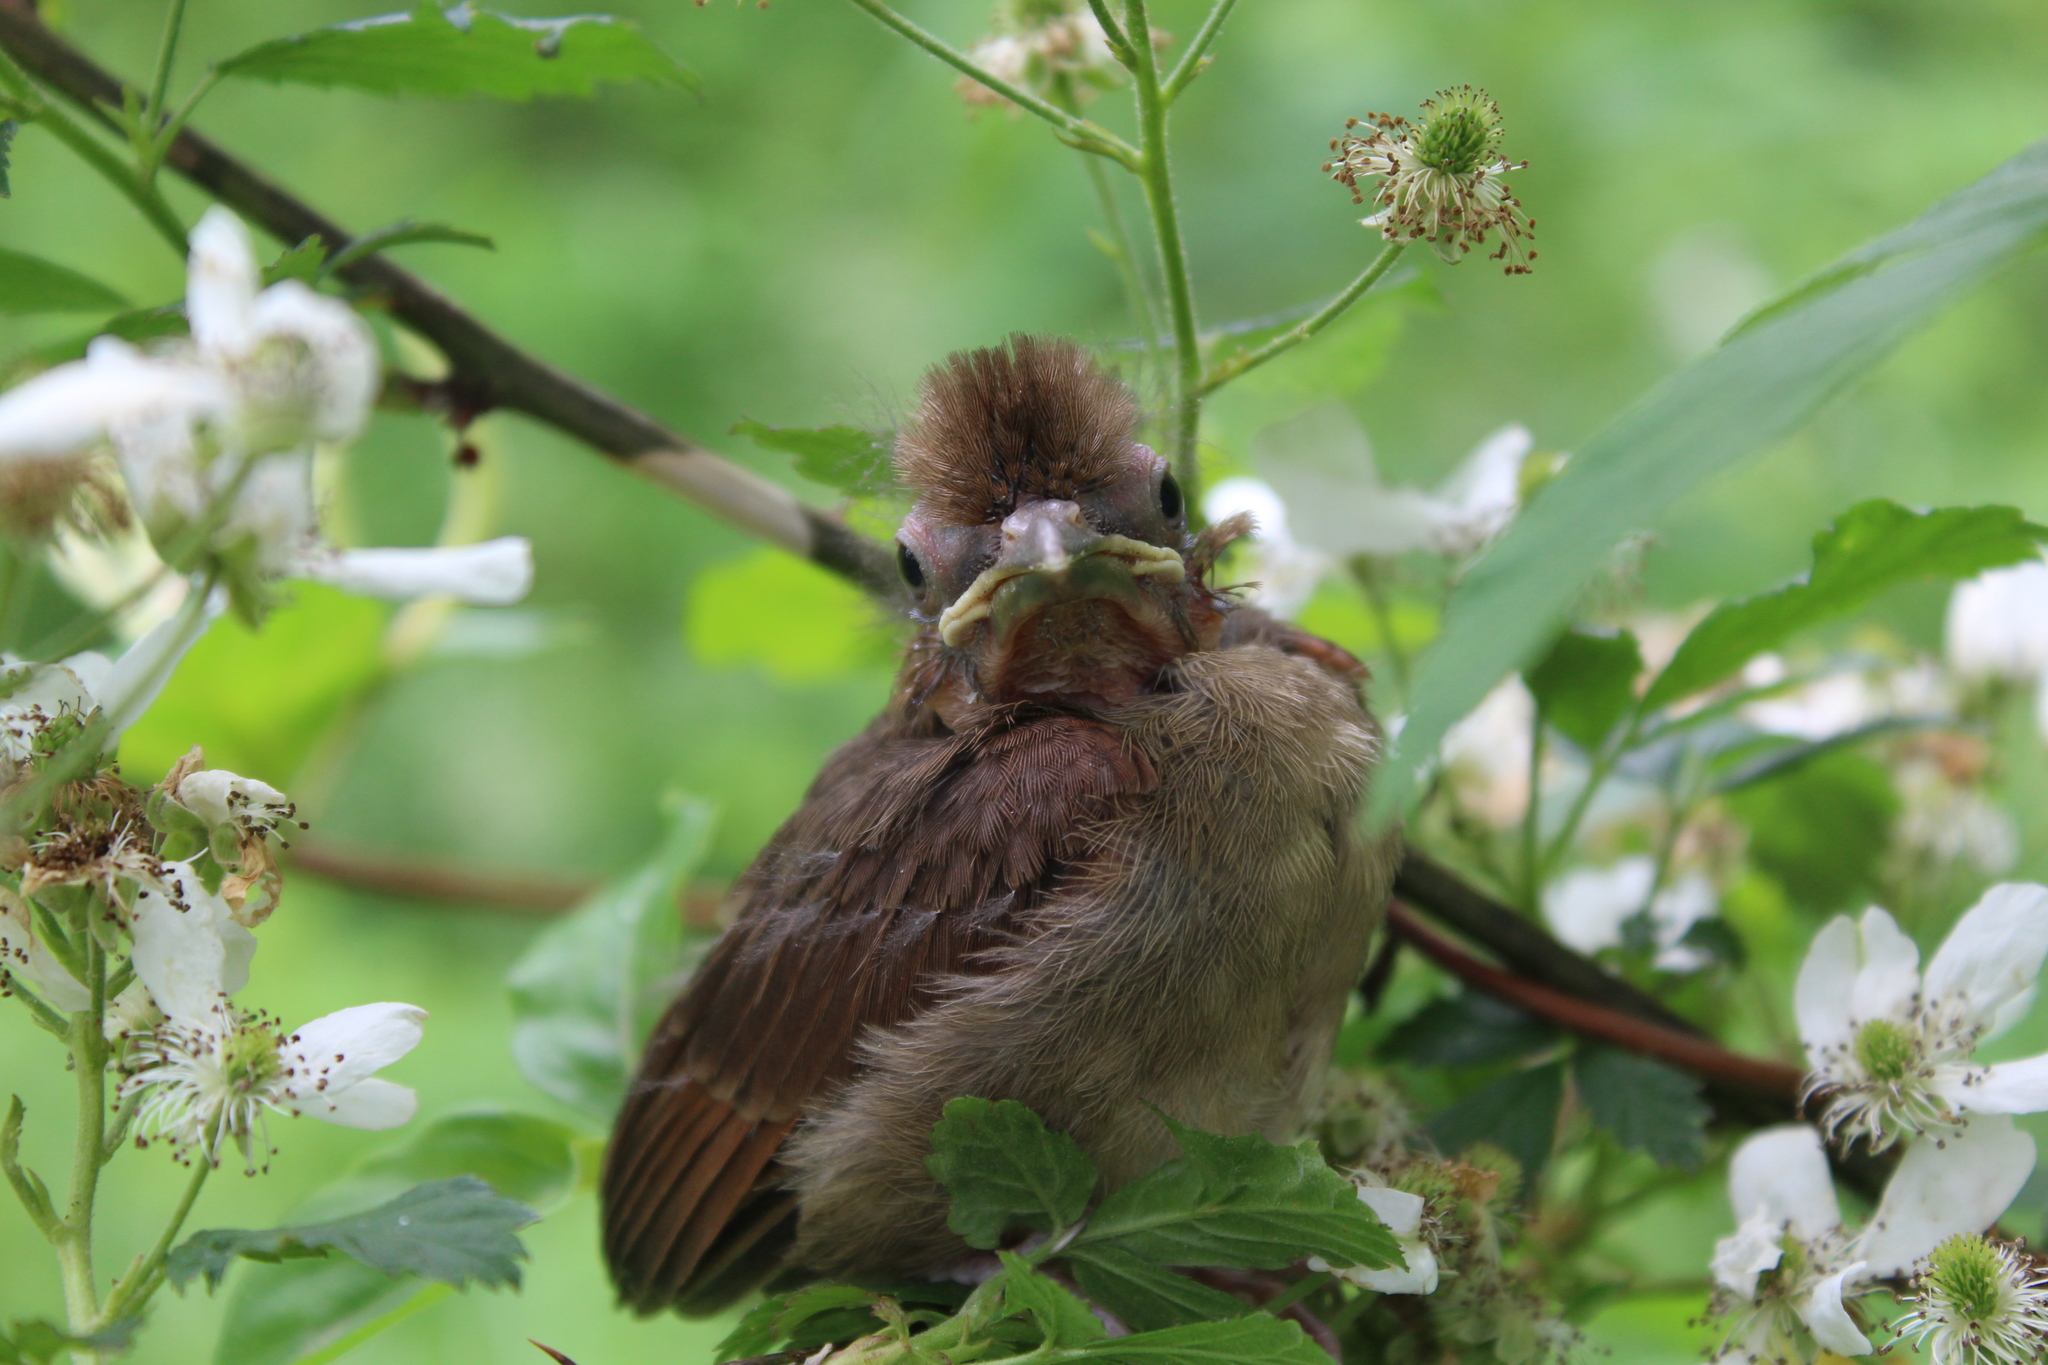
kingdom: Animalia
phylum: Chordata
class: Aves
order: Passeriformes
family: Cardinalidae
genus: Cardinalis
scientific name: Cardinalis cardinalis
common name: Northern cardinal
